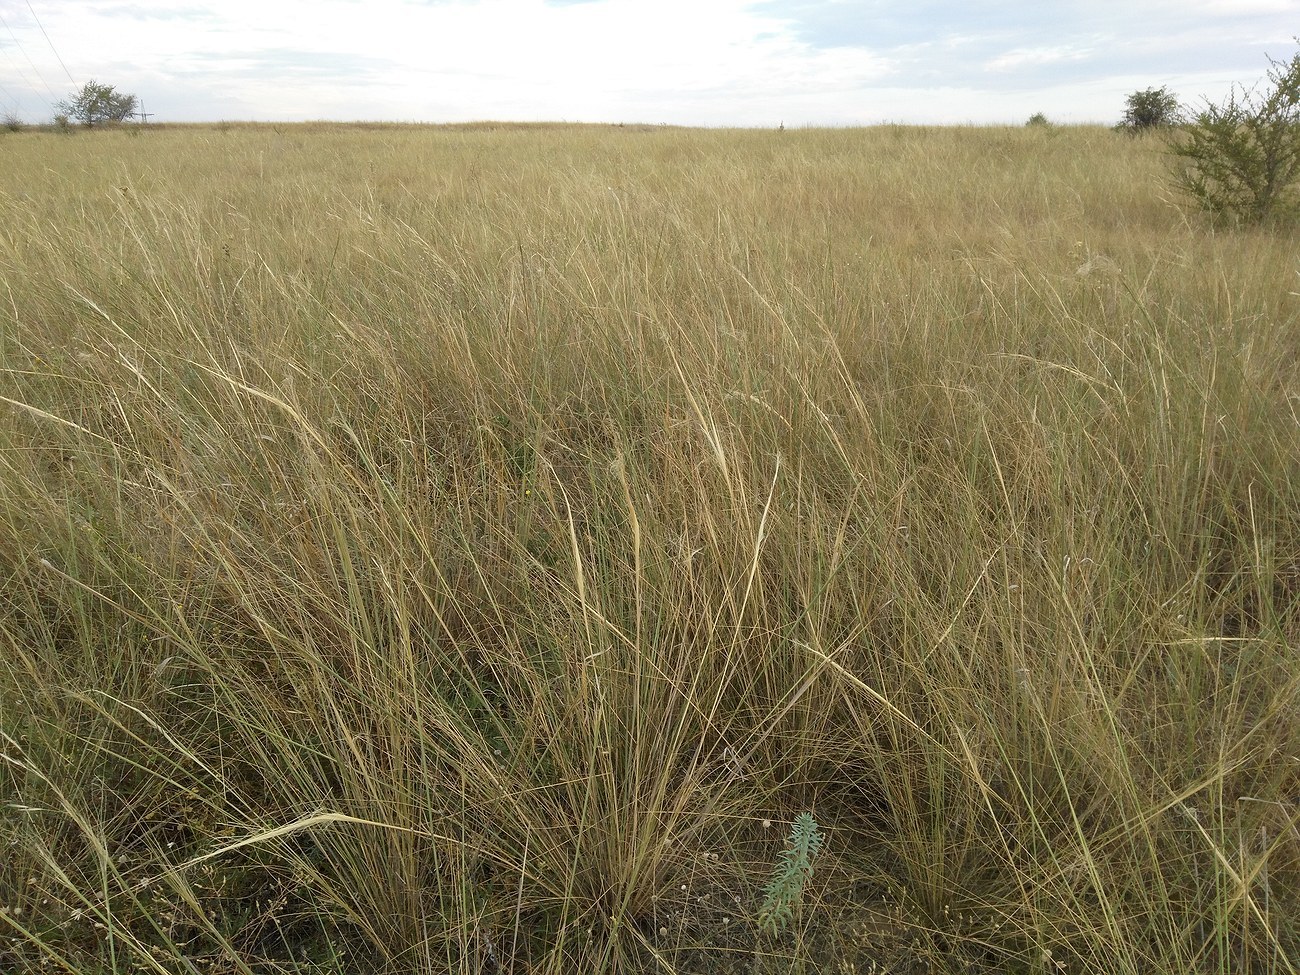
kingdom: Plantae
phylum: Tracheophyta
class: Liliopsida
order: Poales
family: Poaceae
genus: Stipa
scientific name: Stipa capillata
